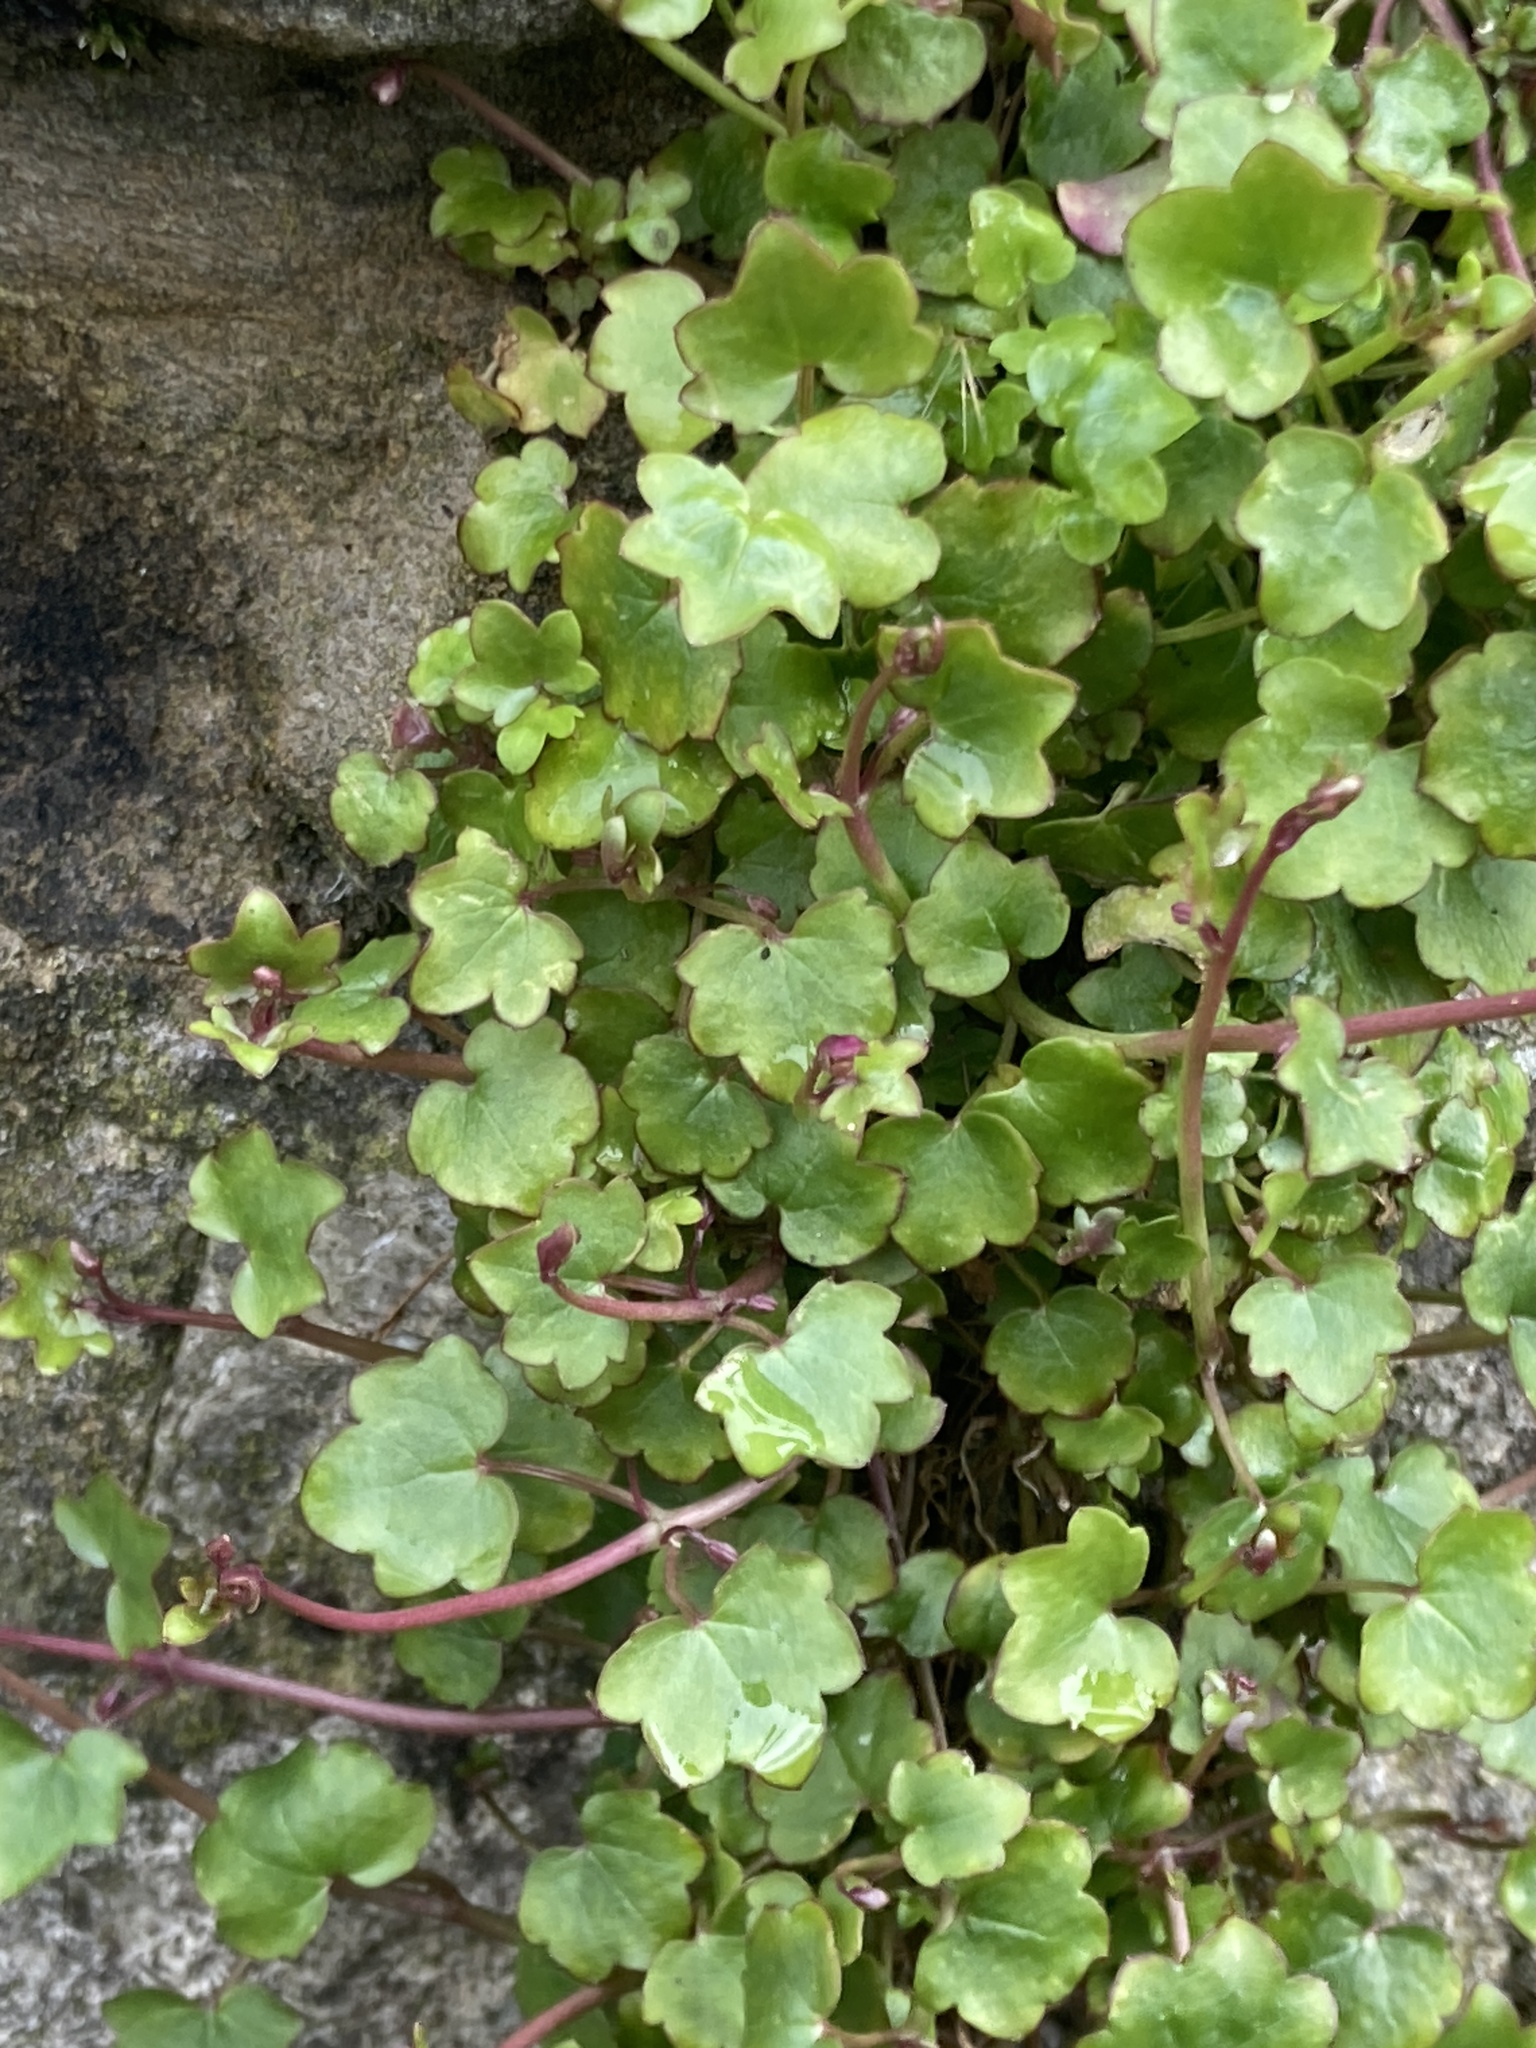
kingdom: Plantae
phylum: Tracheophyta
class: Magnoliopsida
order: Lamiales
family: Plantaginaceae
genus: Cymbalaria
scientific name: Cymbalaria muralis
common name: Ivy-leaved toadflax
